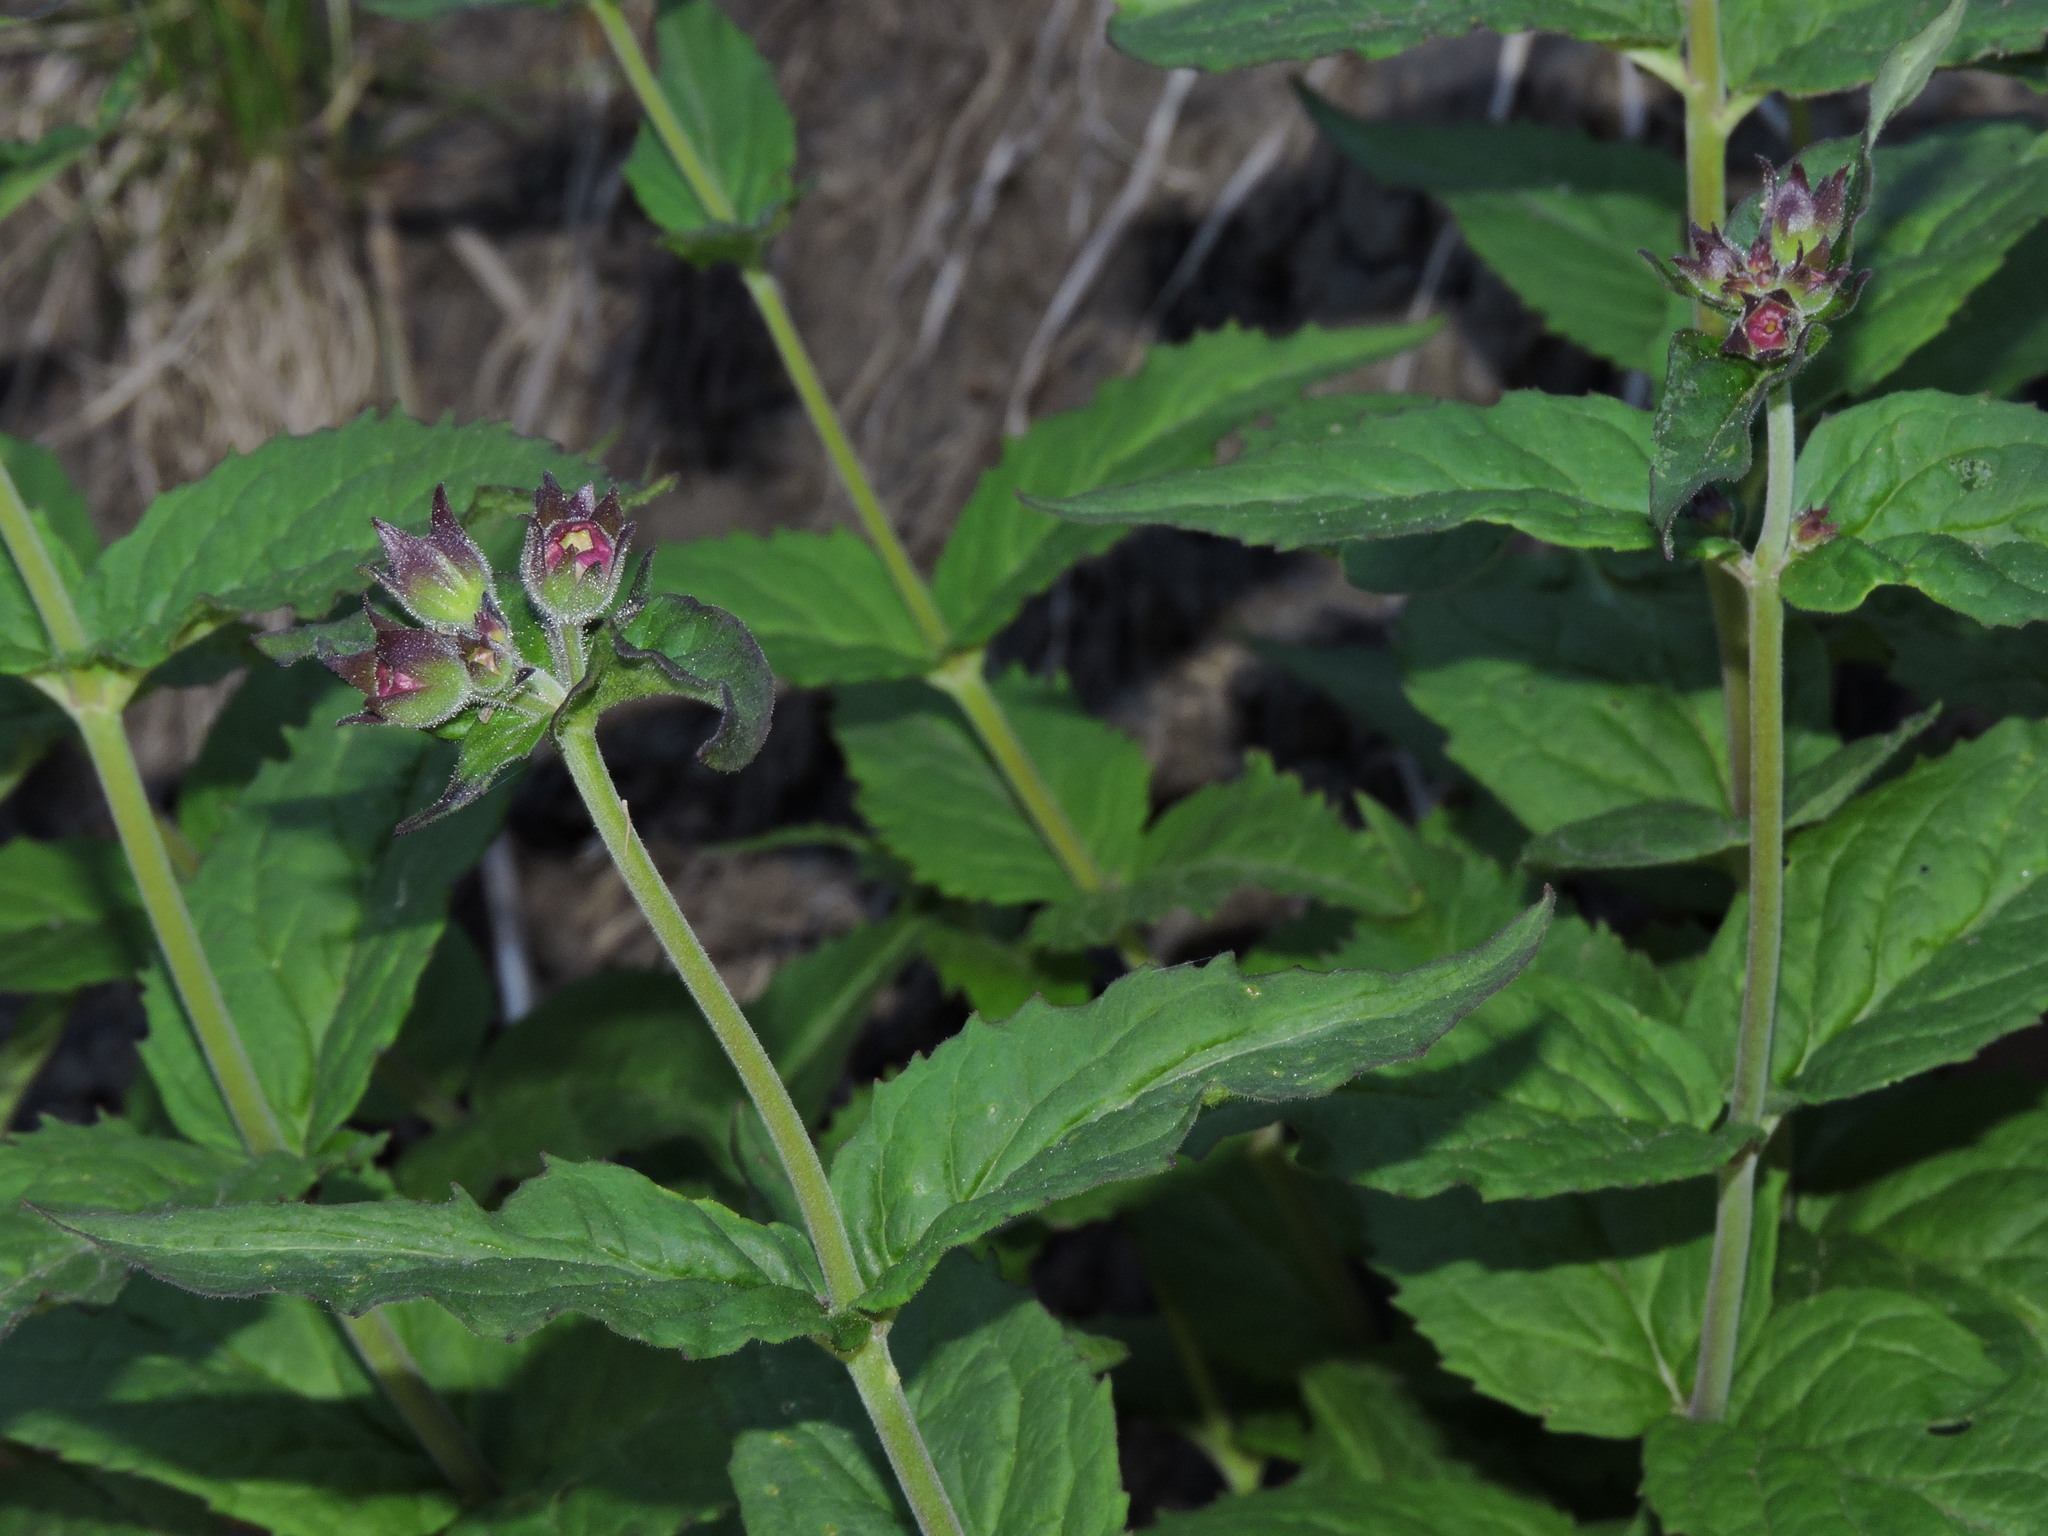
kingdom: Plantae
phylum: Tracheophyta
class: Magnoliopsida
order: Lamiales
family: Plantaginaceae
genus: Nothochelone
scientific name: Nothochelone nemorosa
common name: Woodland beardtongue
